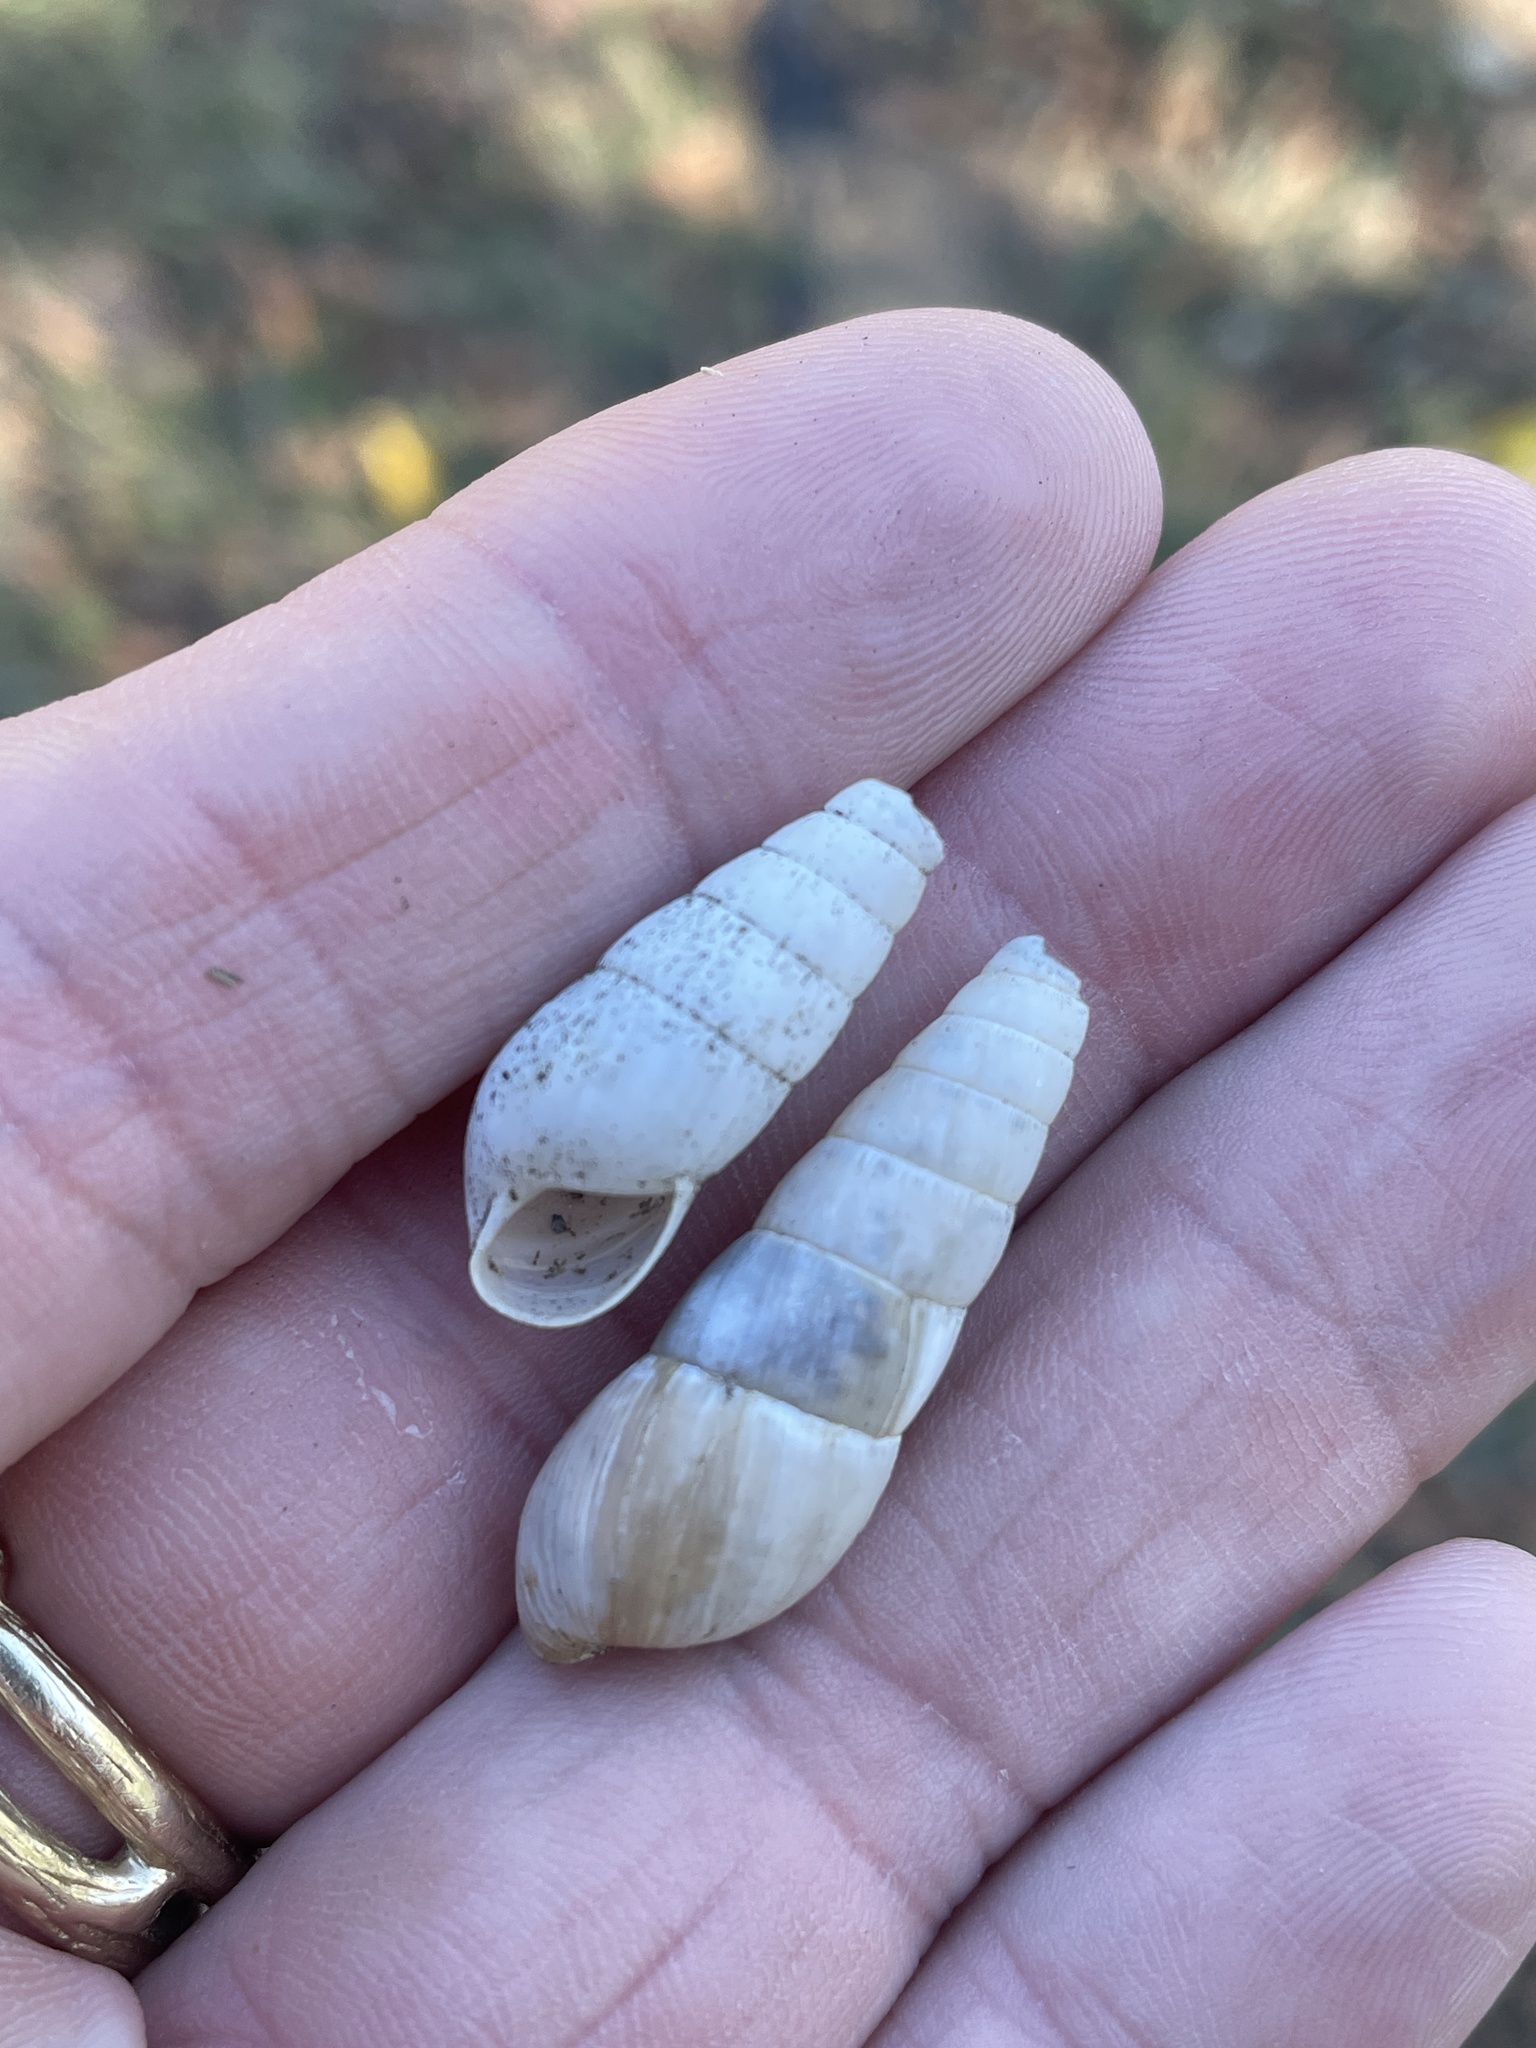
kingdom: Animalia
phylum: Mollusca
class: Gastropoda
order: Stylommatophora
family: Achatinidae
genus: Rumina
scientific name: Rumina decollata
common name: Decollate snail
